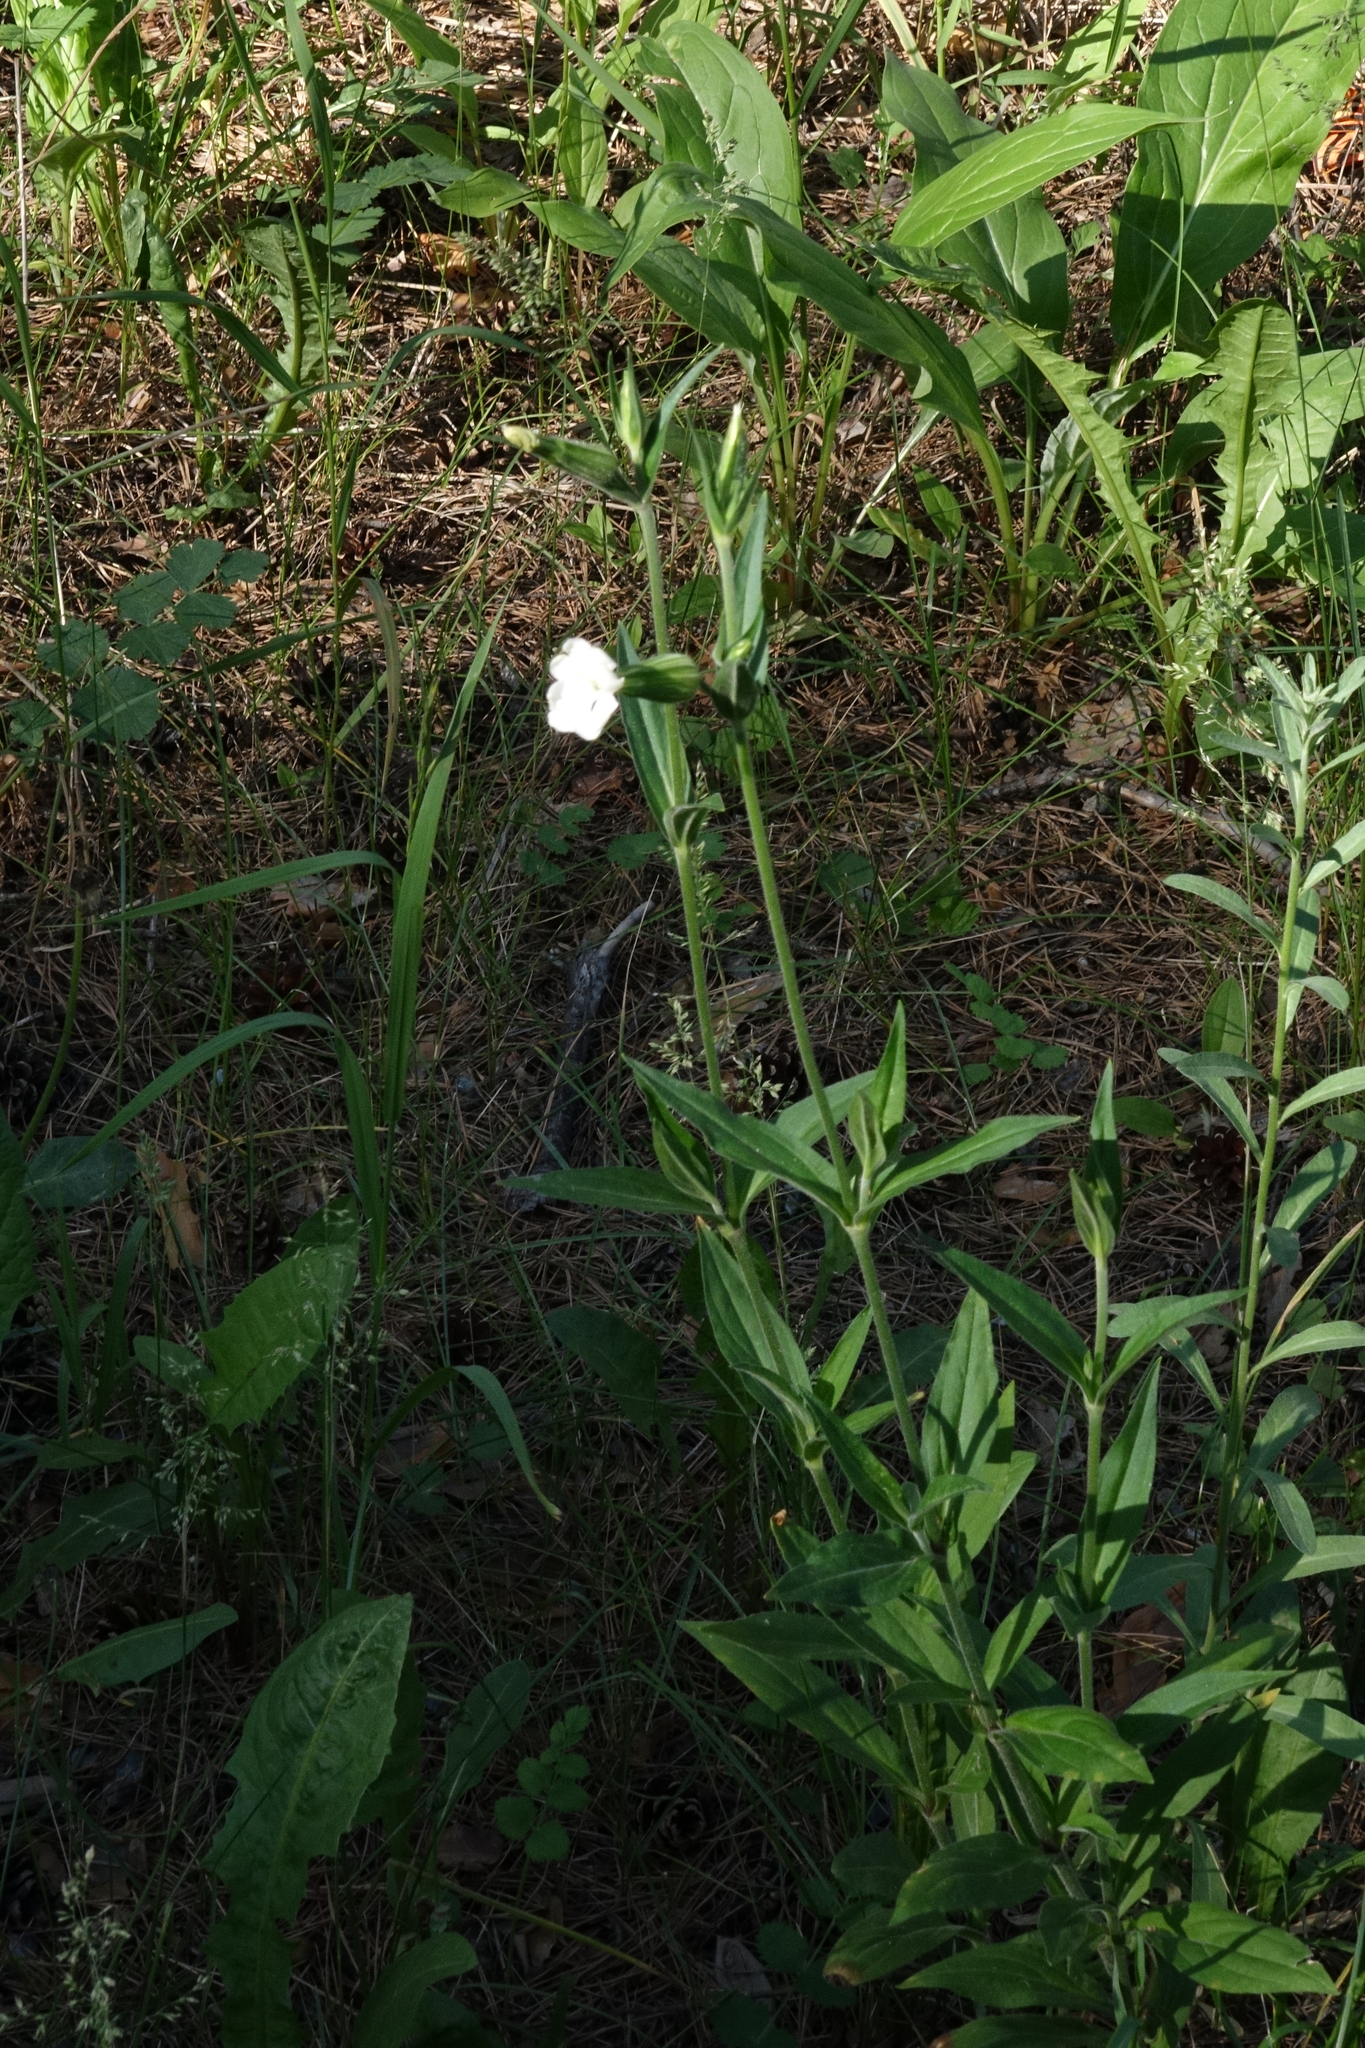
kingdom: Plantae
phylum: Tracheophyta
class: Magnoliopsida
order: Caryophyllales
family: Caryophyllaceae
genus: Silene
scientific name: Silene latifolia
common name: White campion
